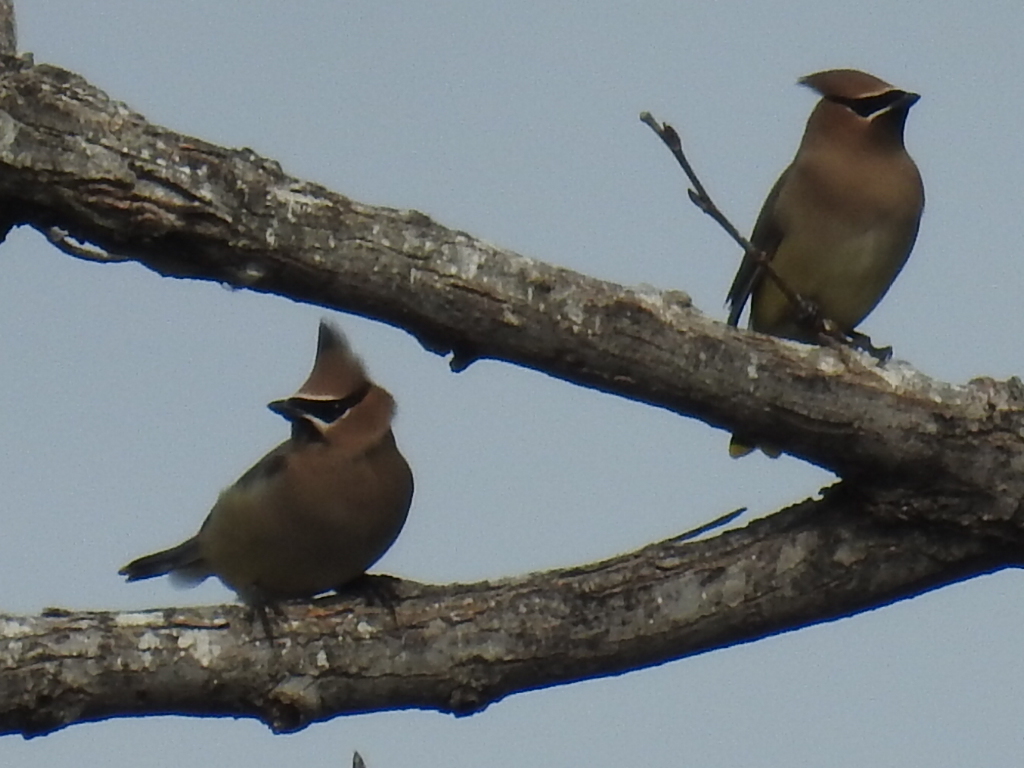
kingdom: Animalia
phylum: Chordata
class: Aves
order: Passeriformes
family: Bombycillidae
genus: Bombycilla
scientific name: Bombycilla cedrorum
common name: Cedar waxwing
